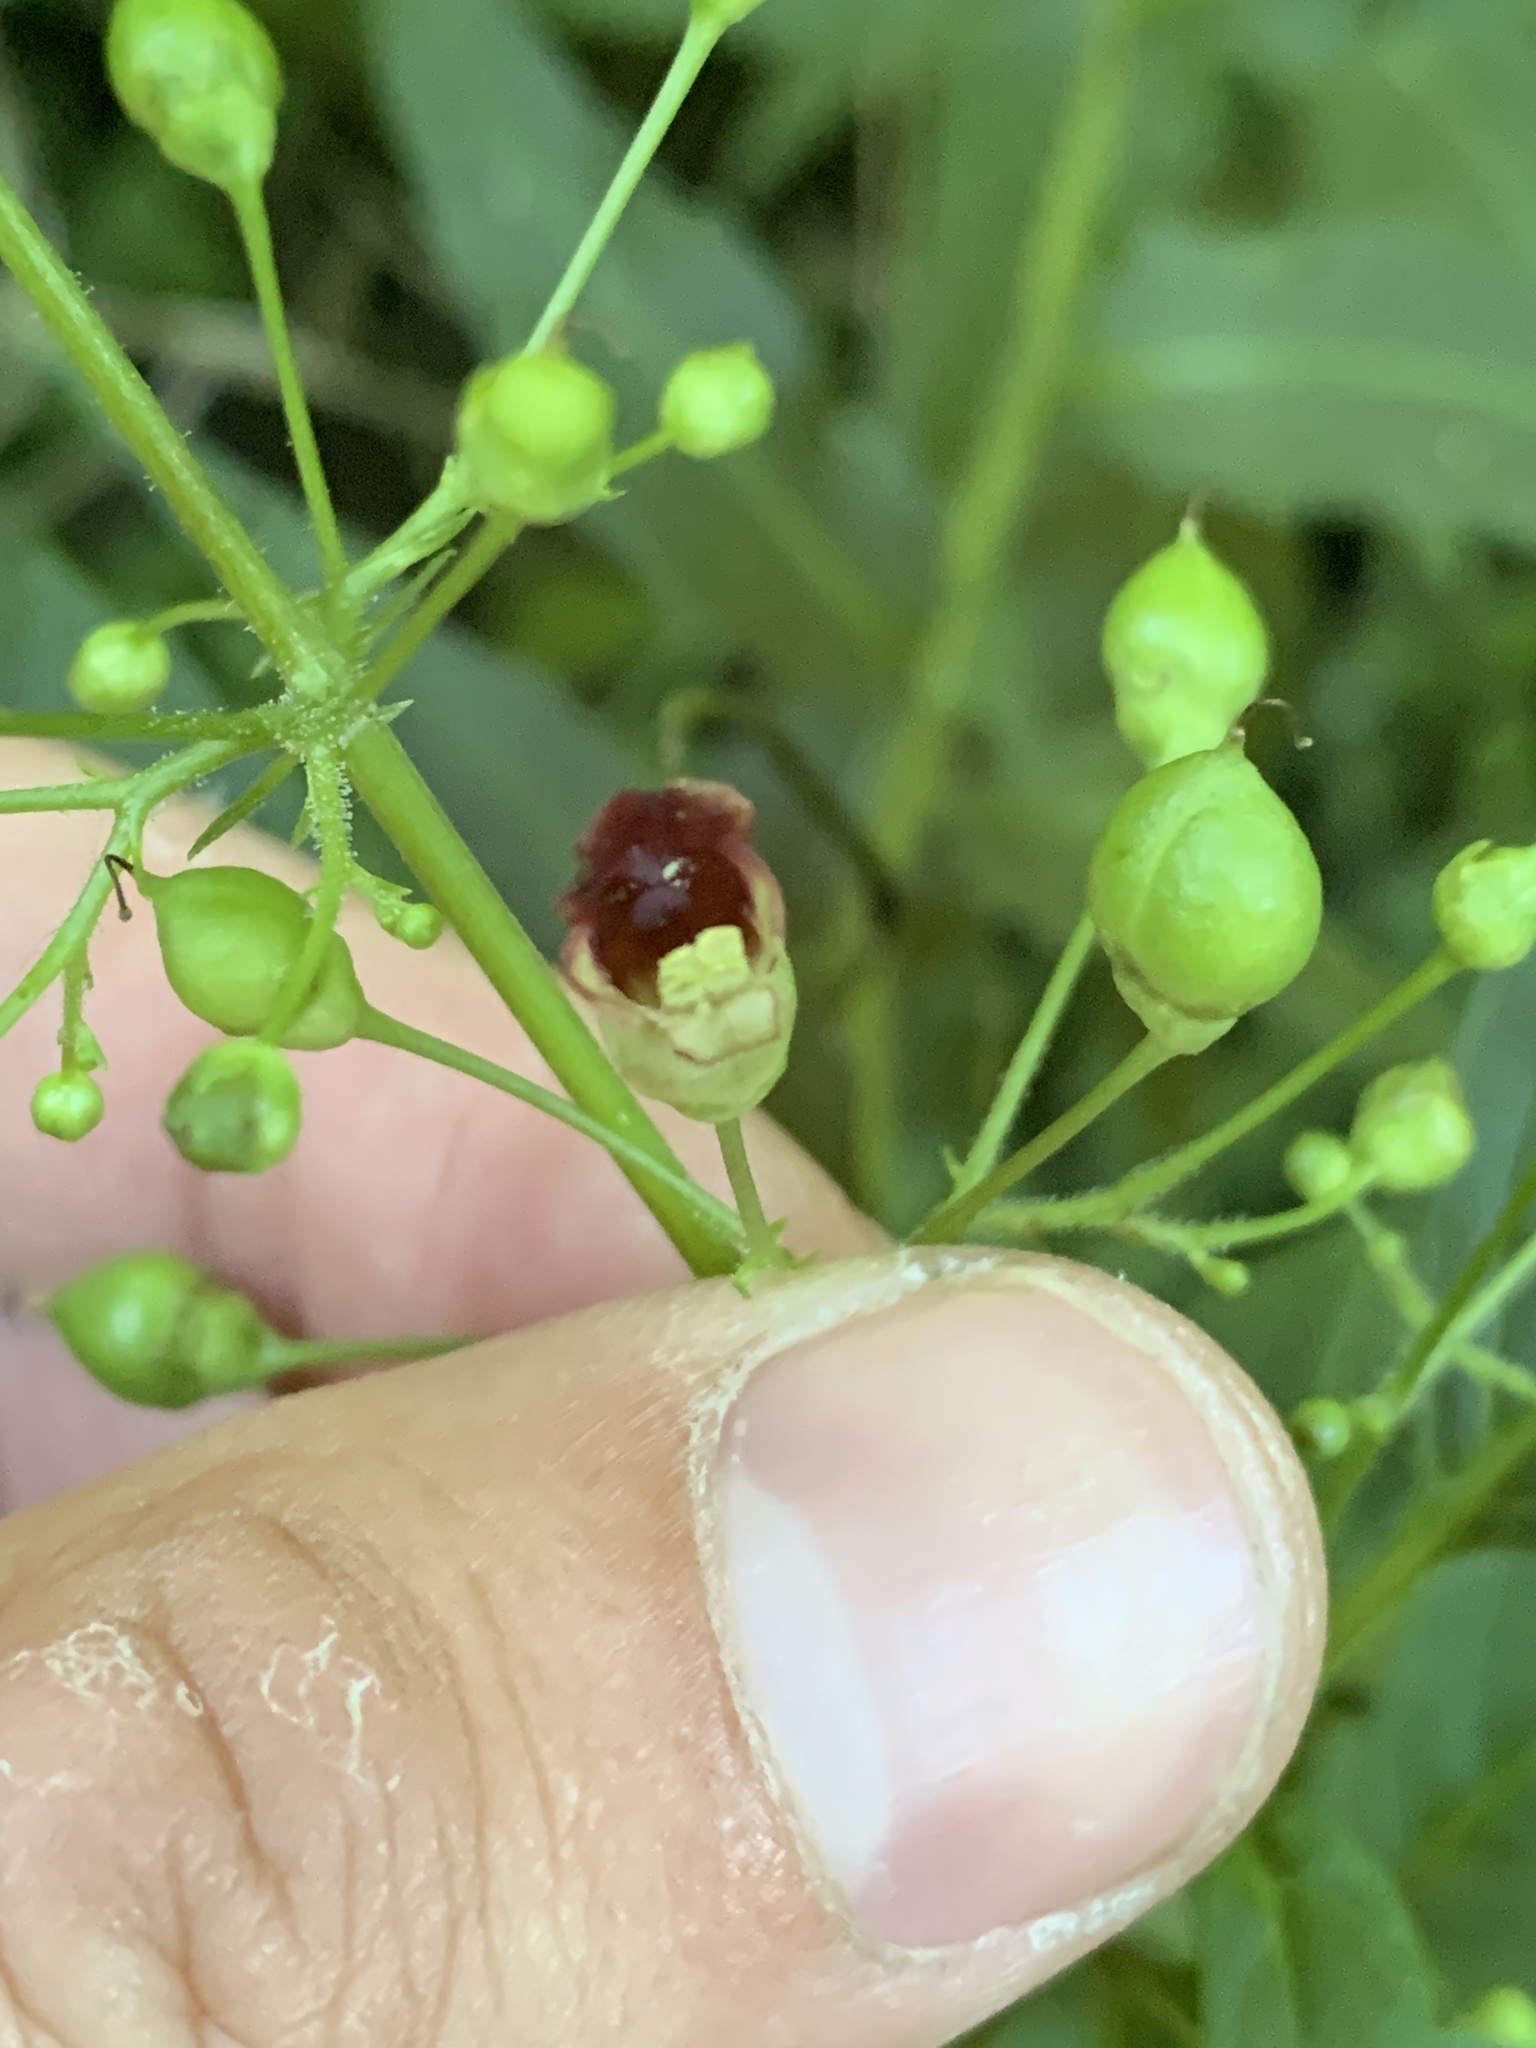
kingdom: Plantae
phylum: Tracheophyta
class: Magnoliopsida
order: Lamiales
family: Scrophulariaceae
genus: Scrophularia
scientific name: Scrophularia marilandica
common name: Eastern figwort
